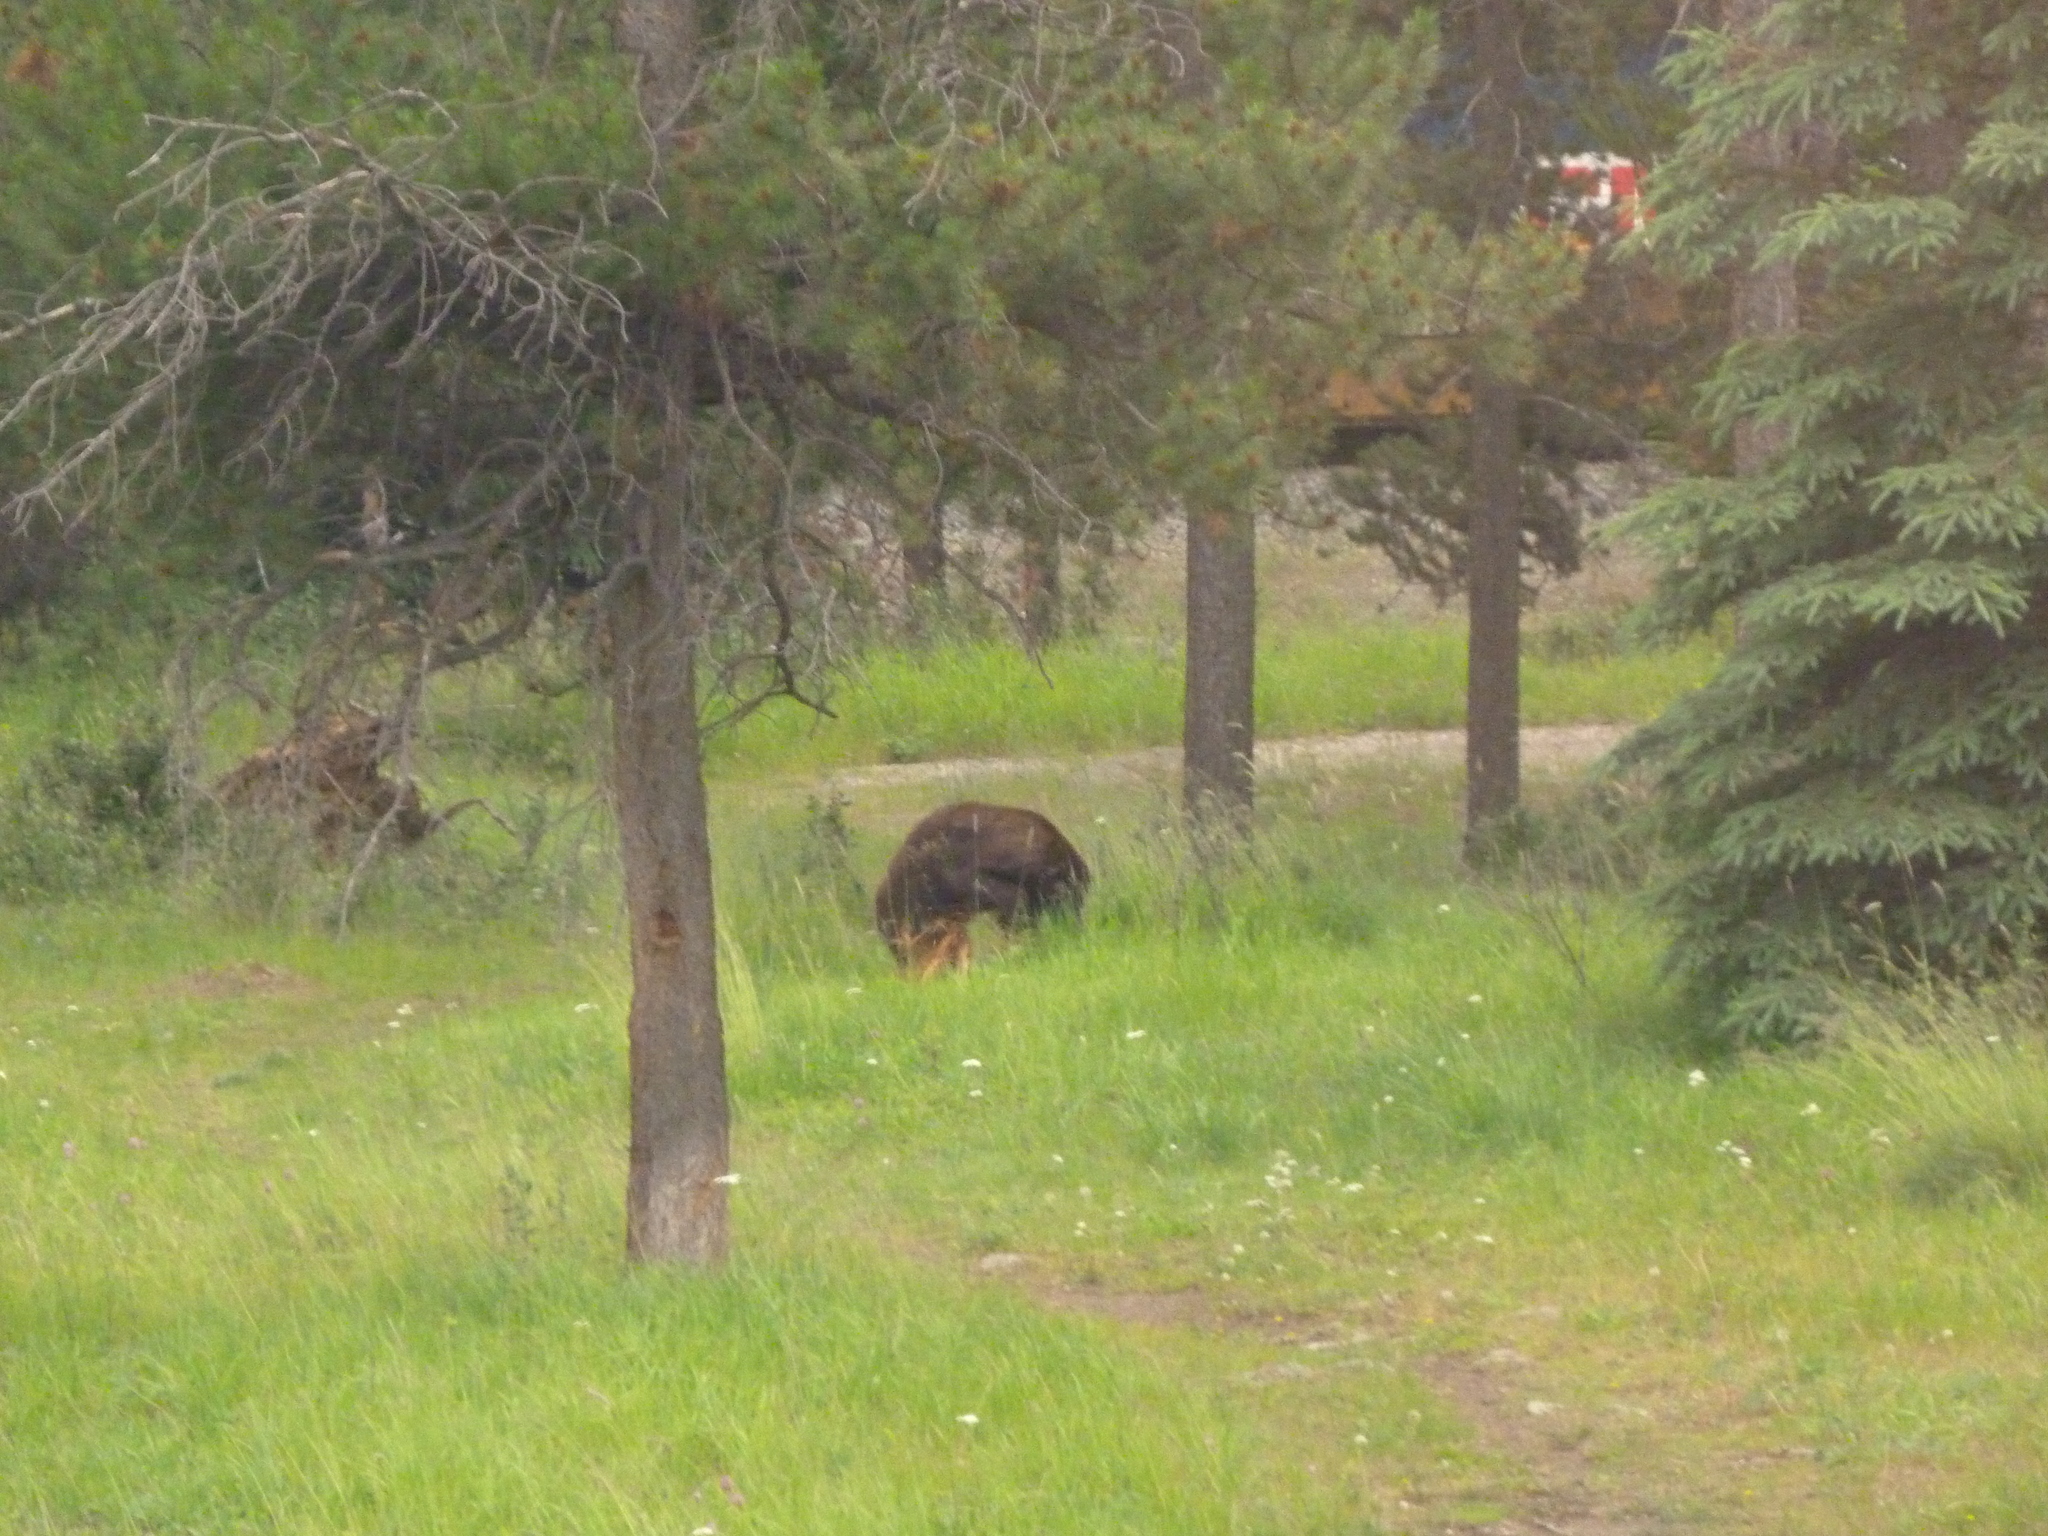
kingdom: Animalia
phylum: Chordata
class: Mammalia
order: Carnivora
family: Ursidae
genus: Ursus
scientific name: Ursus americanus
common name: American black bear
